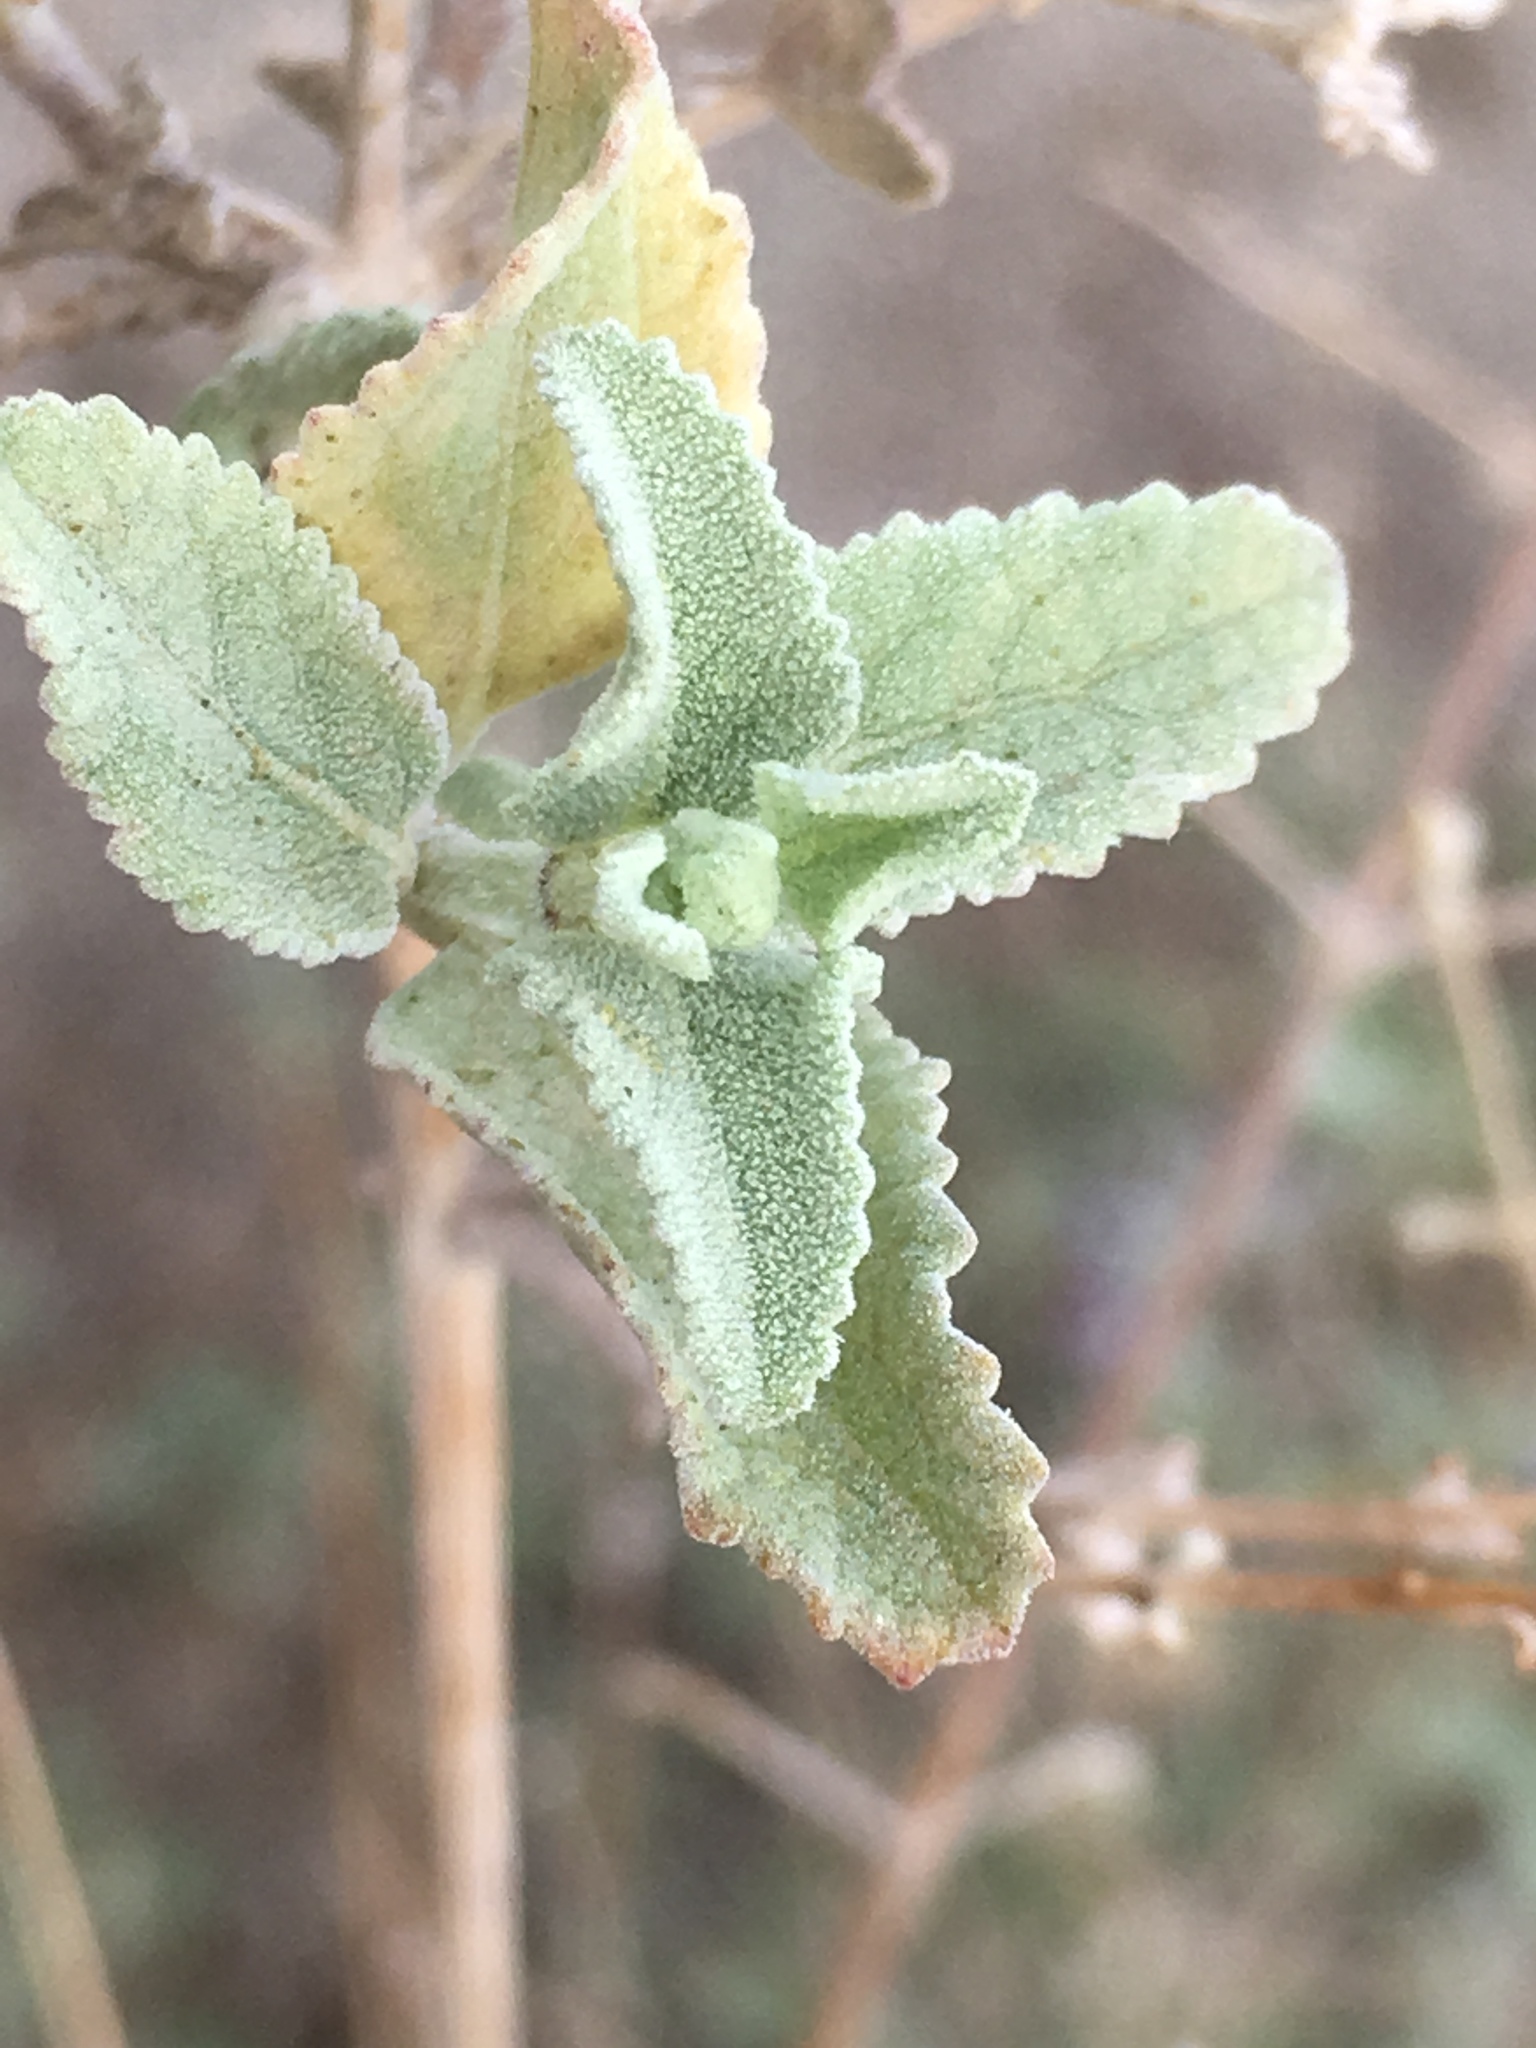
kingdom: Plantae
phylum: Tracheophyta
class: Magnoliopsida
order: Lamiales
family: Lamiaceae
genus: Condea
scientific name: Condea emoryi
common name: Chia
